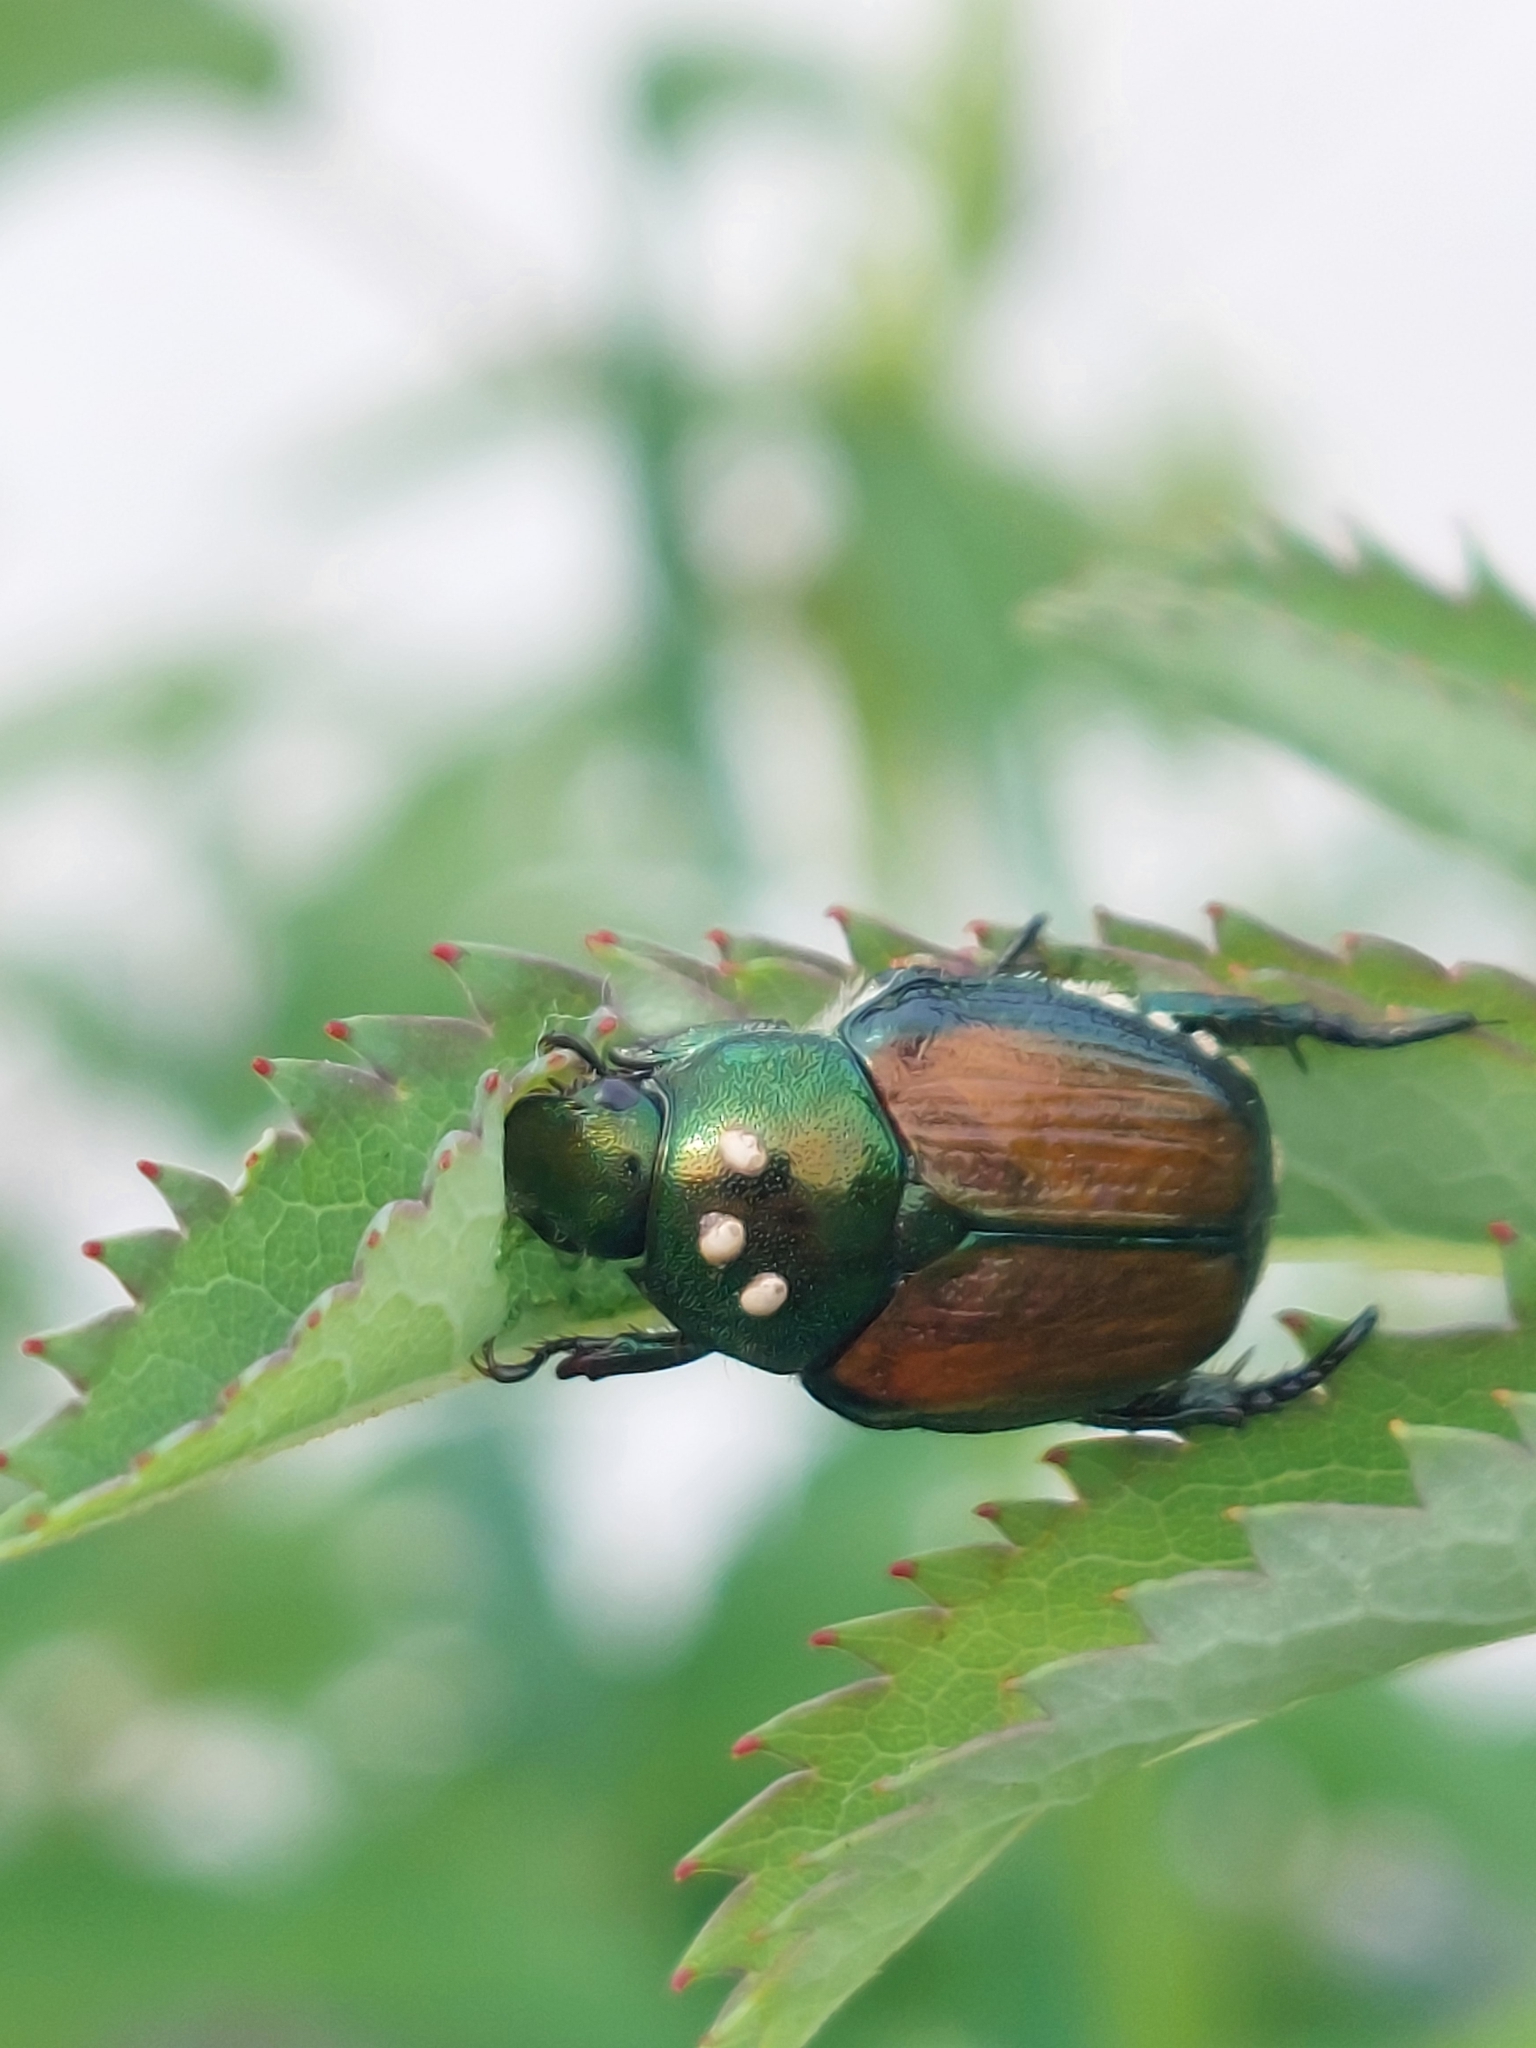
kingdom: Animalia
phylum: Arthropoda
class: Insecta
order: Diptera
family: Tachinidae
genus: Istocheta
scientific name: Istocheta aldrichi
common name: Parasitic wasp
